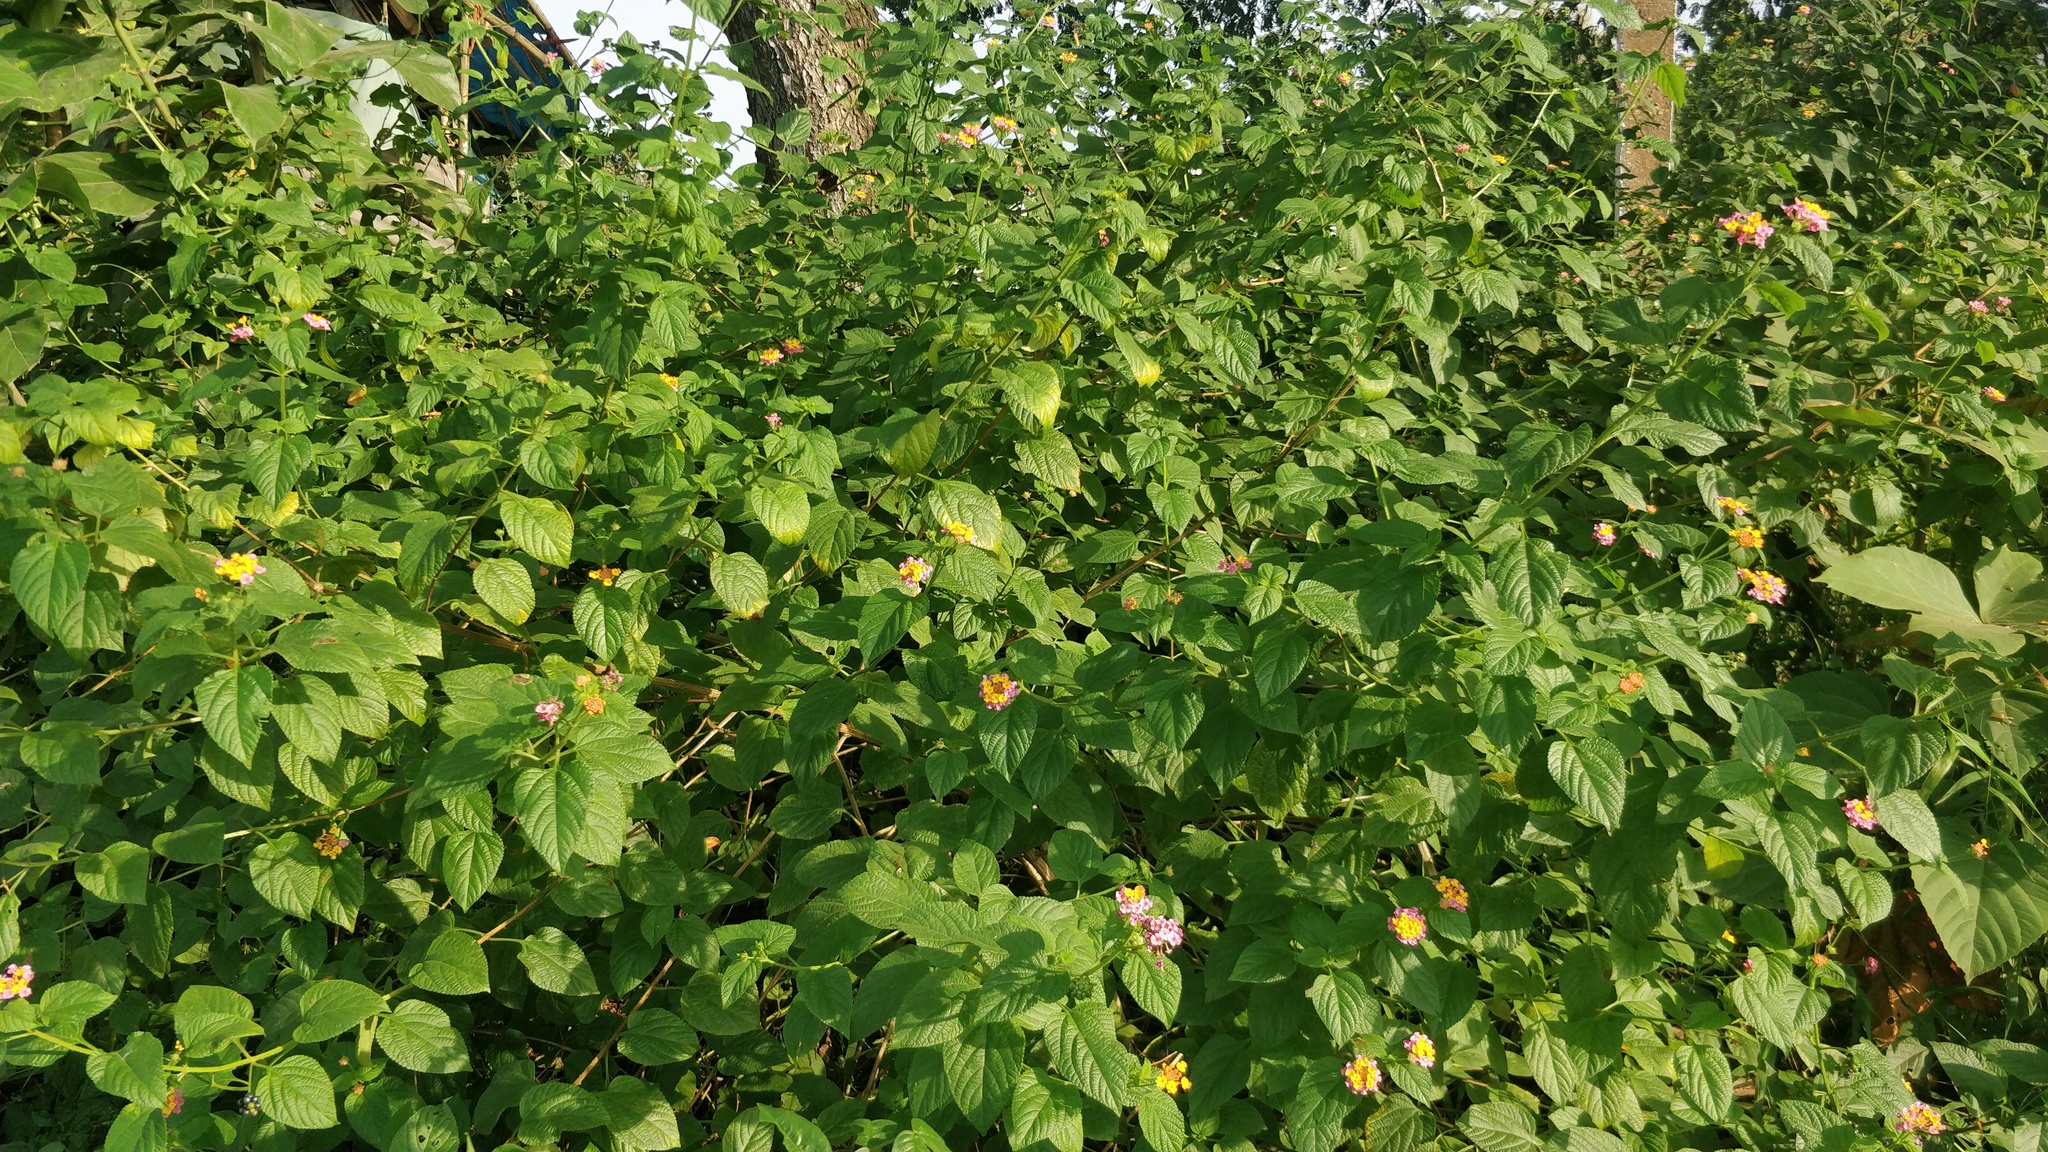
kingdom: Plantae
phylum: Tracheophyta
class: Magnoliopsida
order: Lamiales
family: Verbenaceae
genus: Lantana
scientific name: Lantana camara
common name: Lantana
